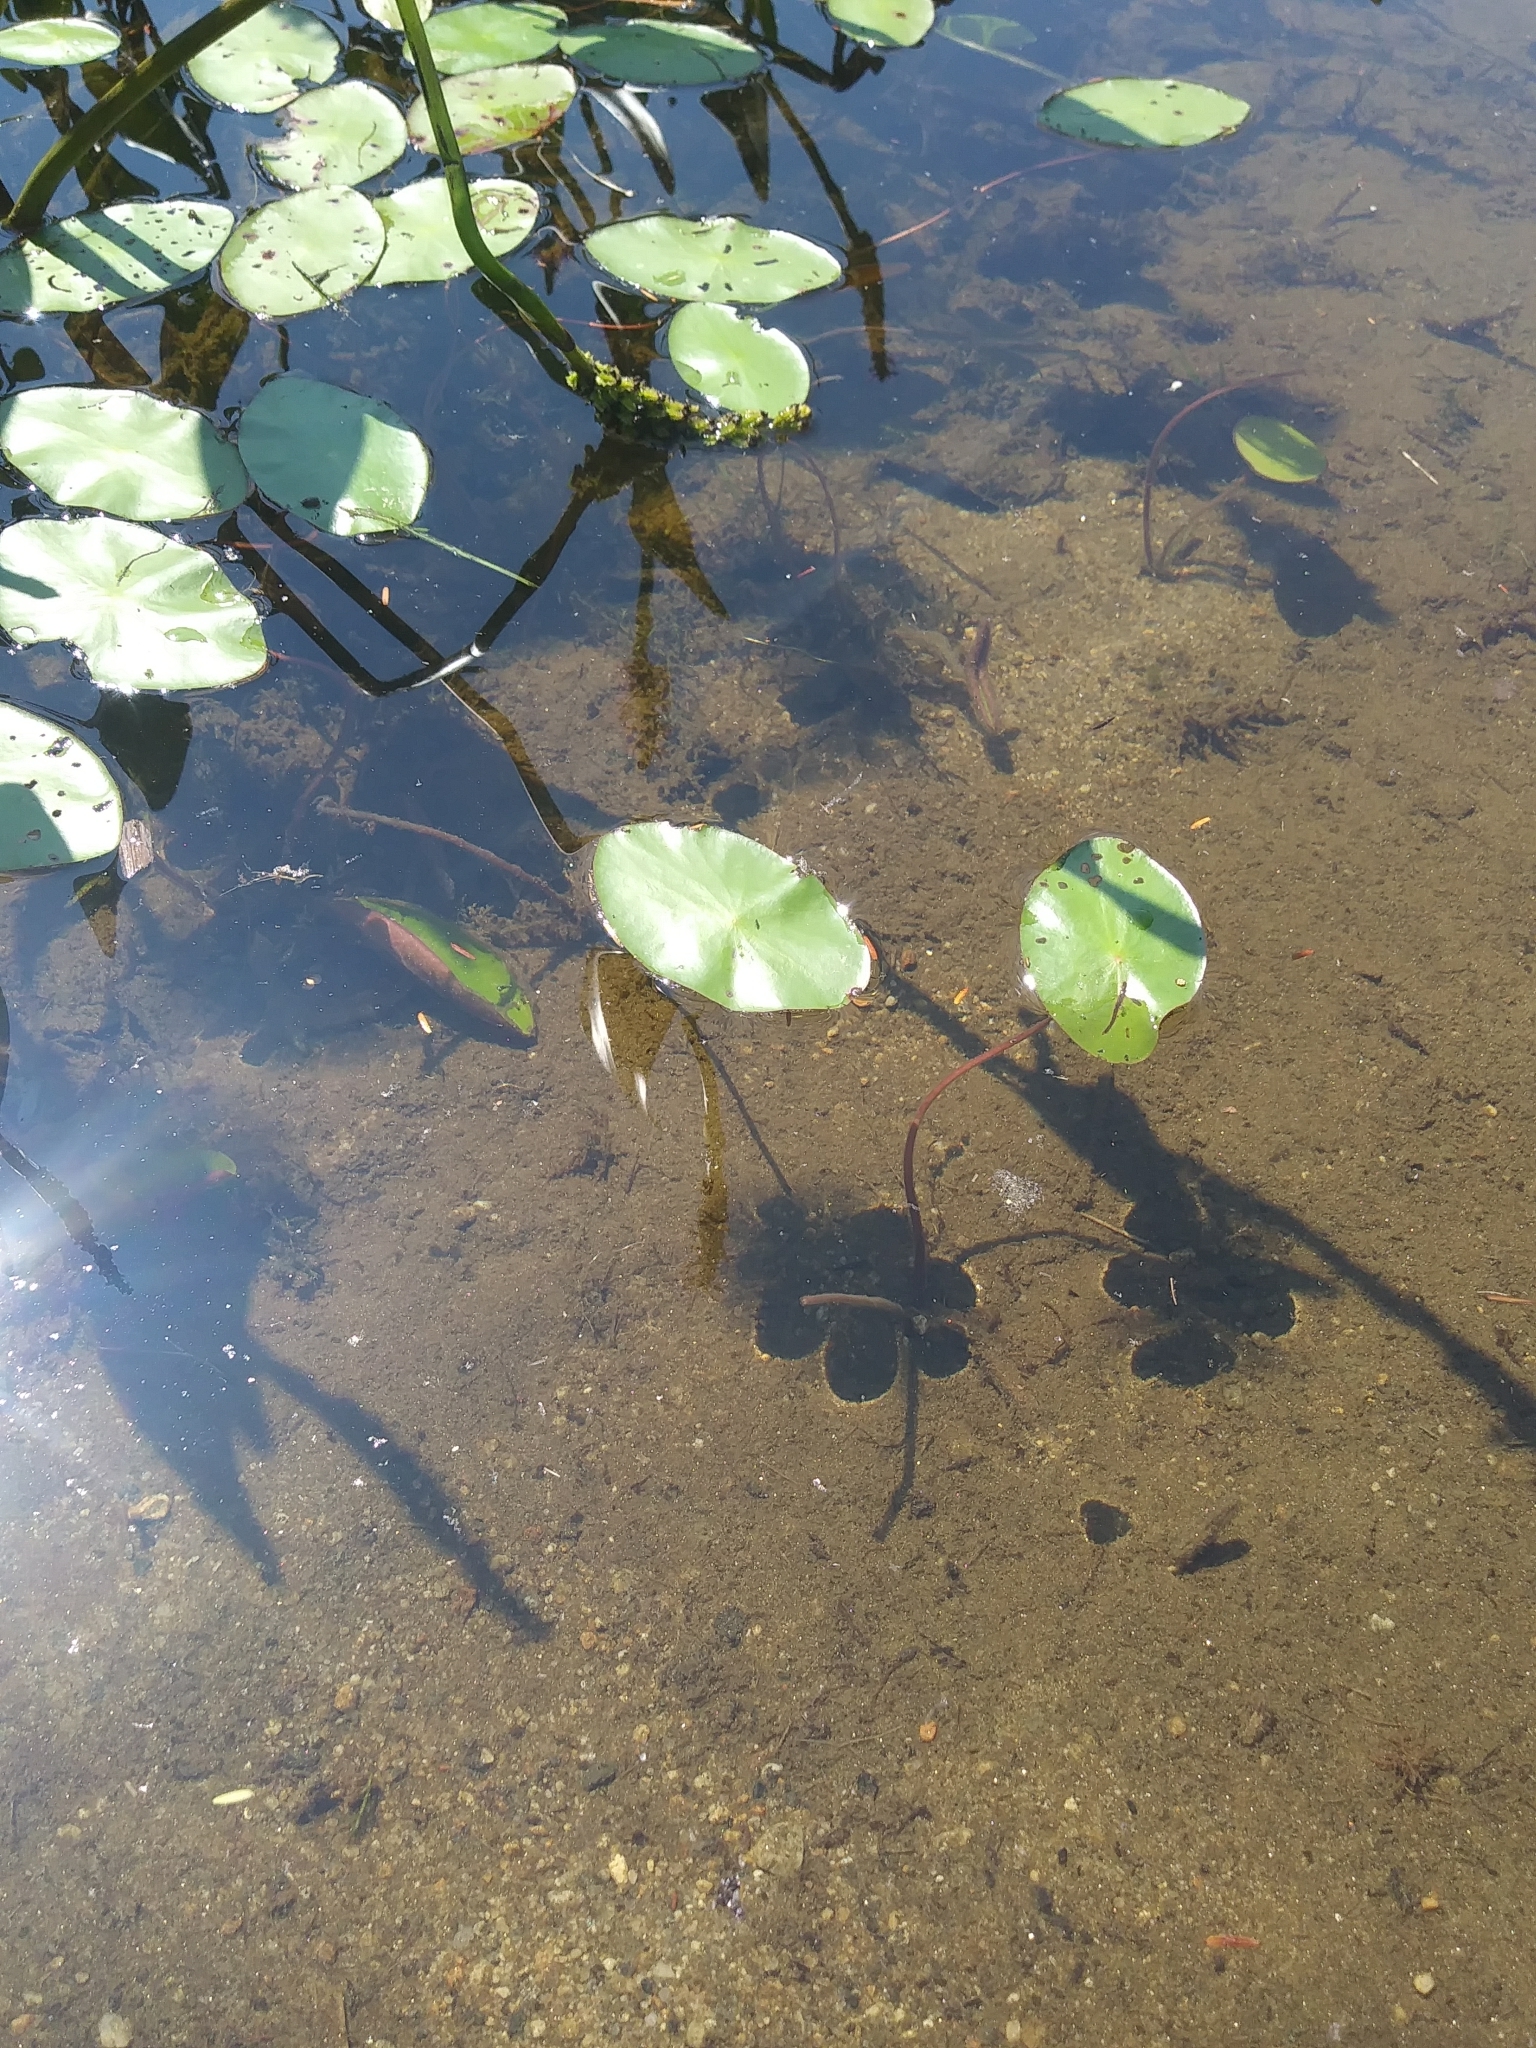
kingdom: Plantae
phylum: Tracheophyta
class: Magnoliopsida
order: Nymphaeales
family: Cabombaceae
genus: Brasenia
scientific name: Brasenia schreberi
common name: Water-shield
